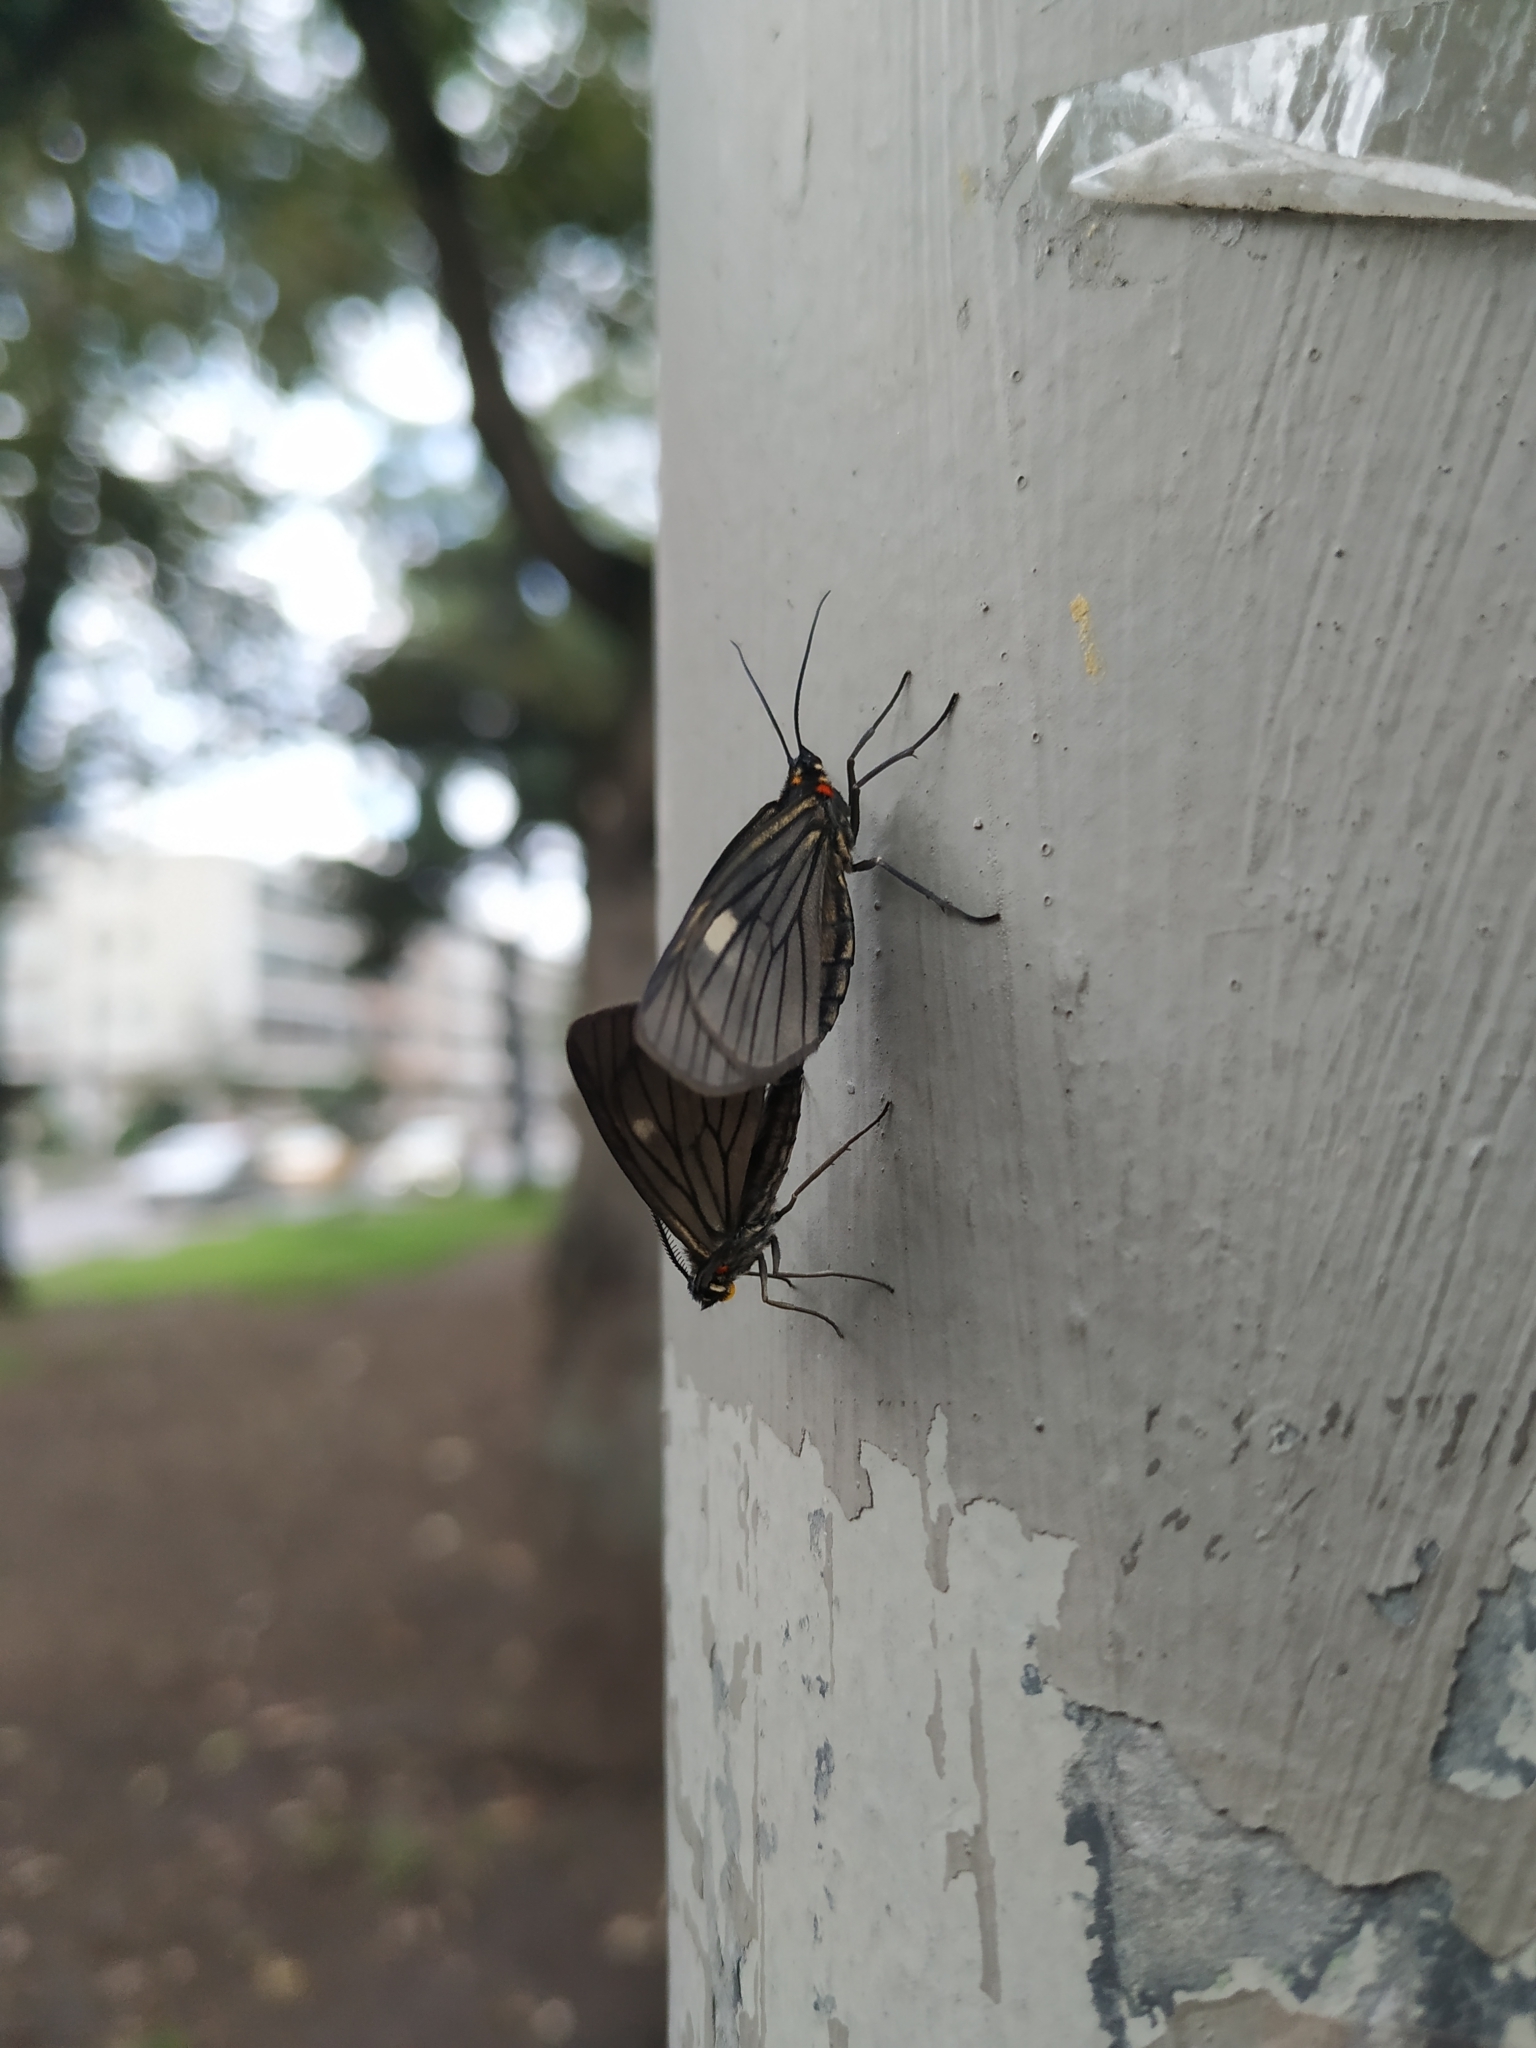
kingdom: Animalia
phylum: Arthropoda
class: Insecta
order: Lepidoptera
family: Geometridae
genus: Sangalopsis
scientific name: Sangalopsis ficifera
